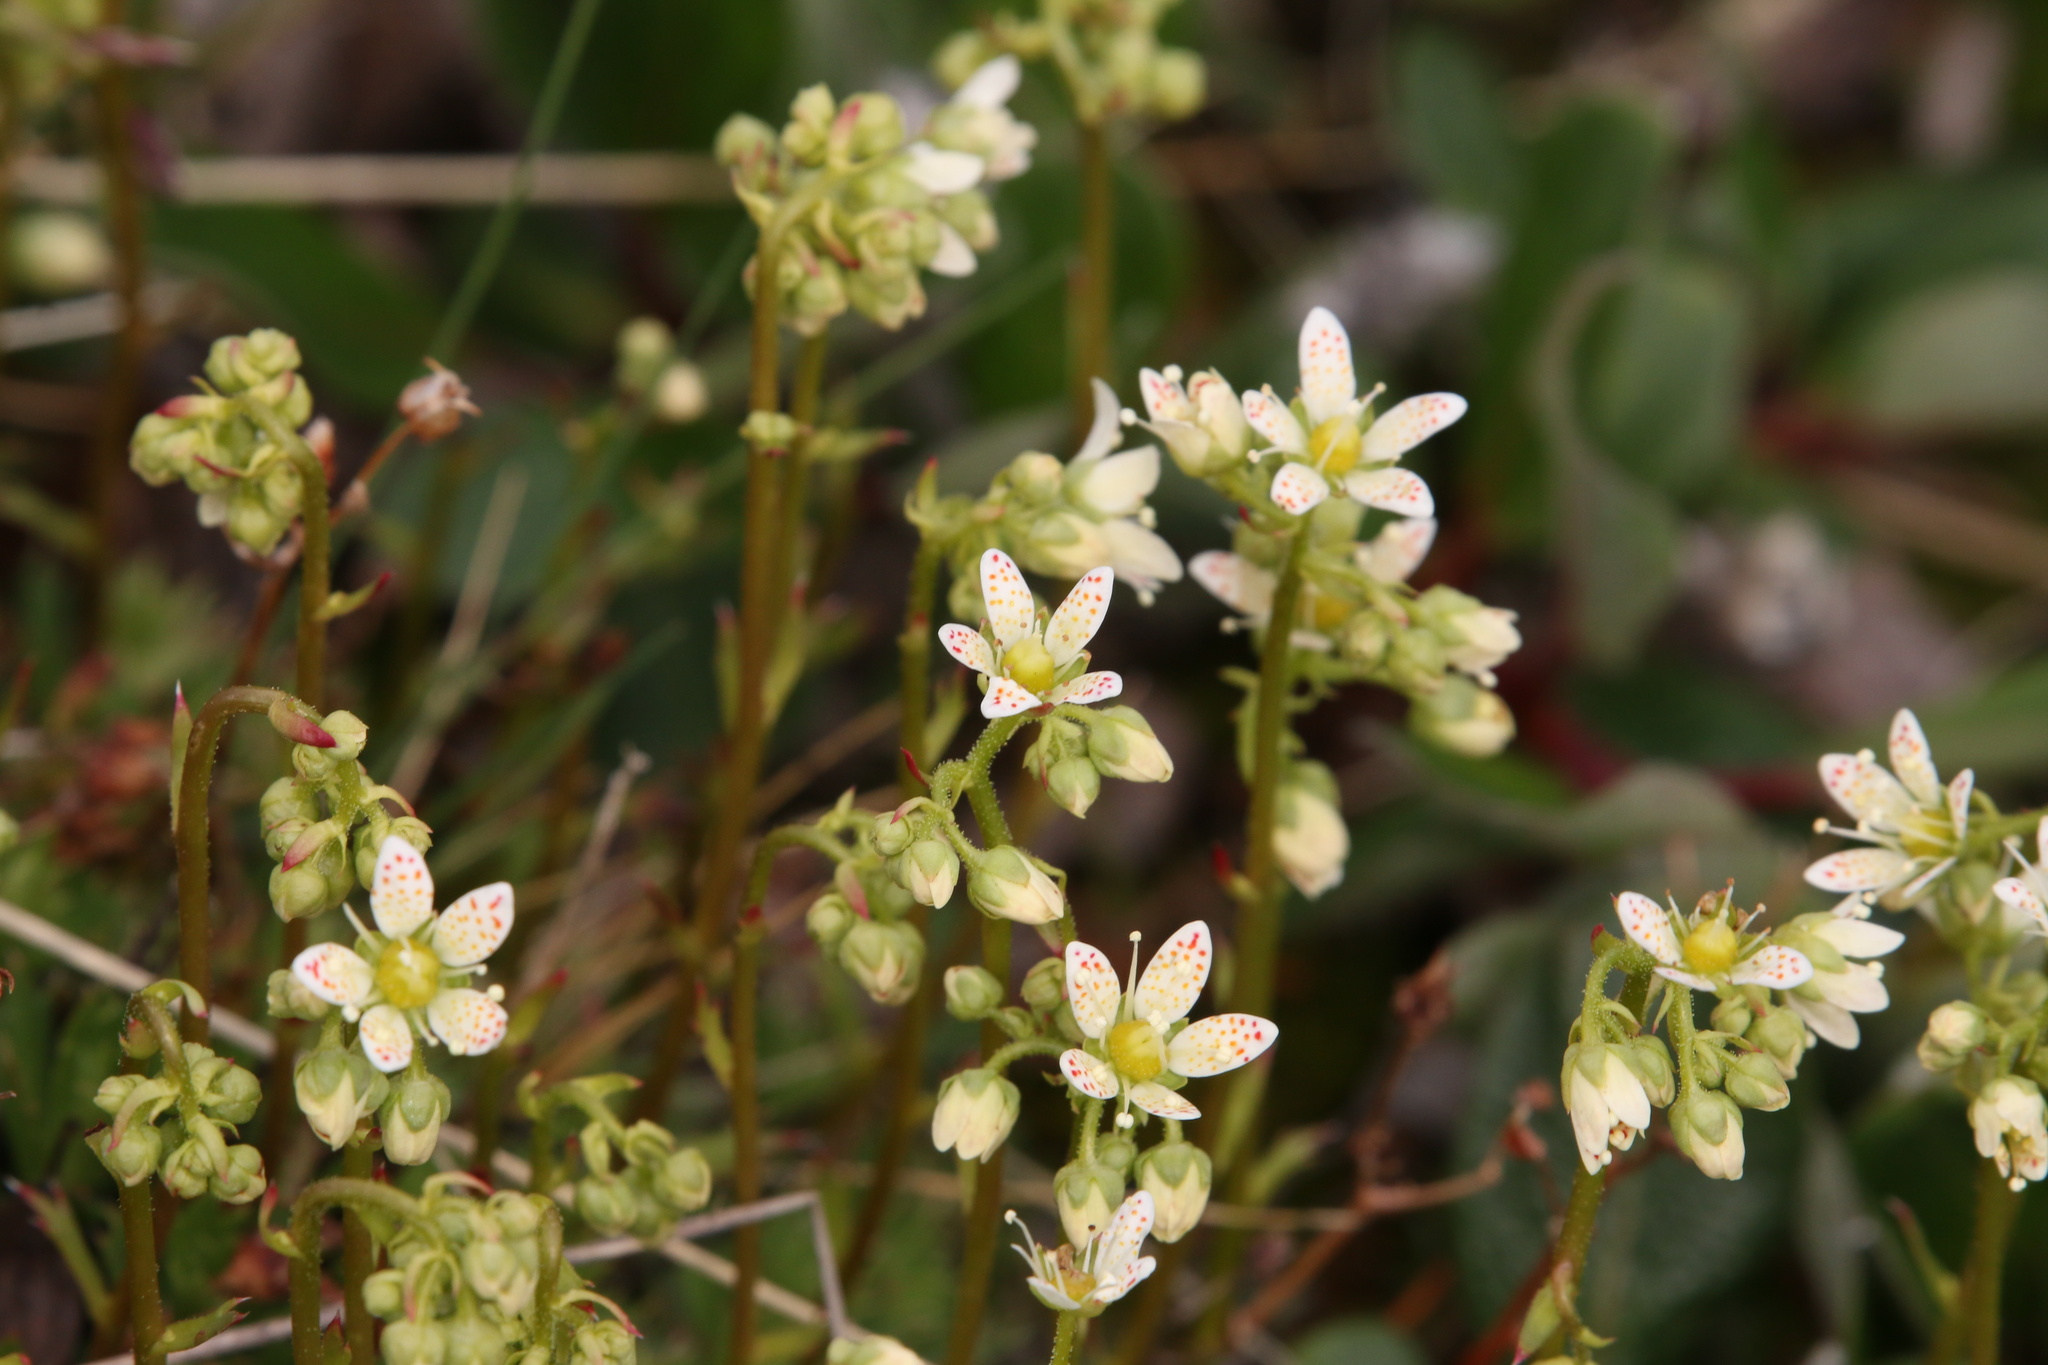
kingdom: Plantae
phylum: Tracheophyta
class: Magnoliopsida
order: Saxifragales
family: Saxifragaceae
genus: Saxifraga
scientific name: Saxifraga tricuspidata
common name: Prickly saxifrage
